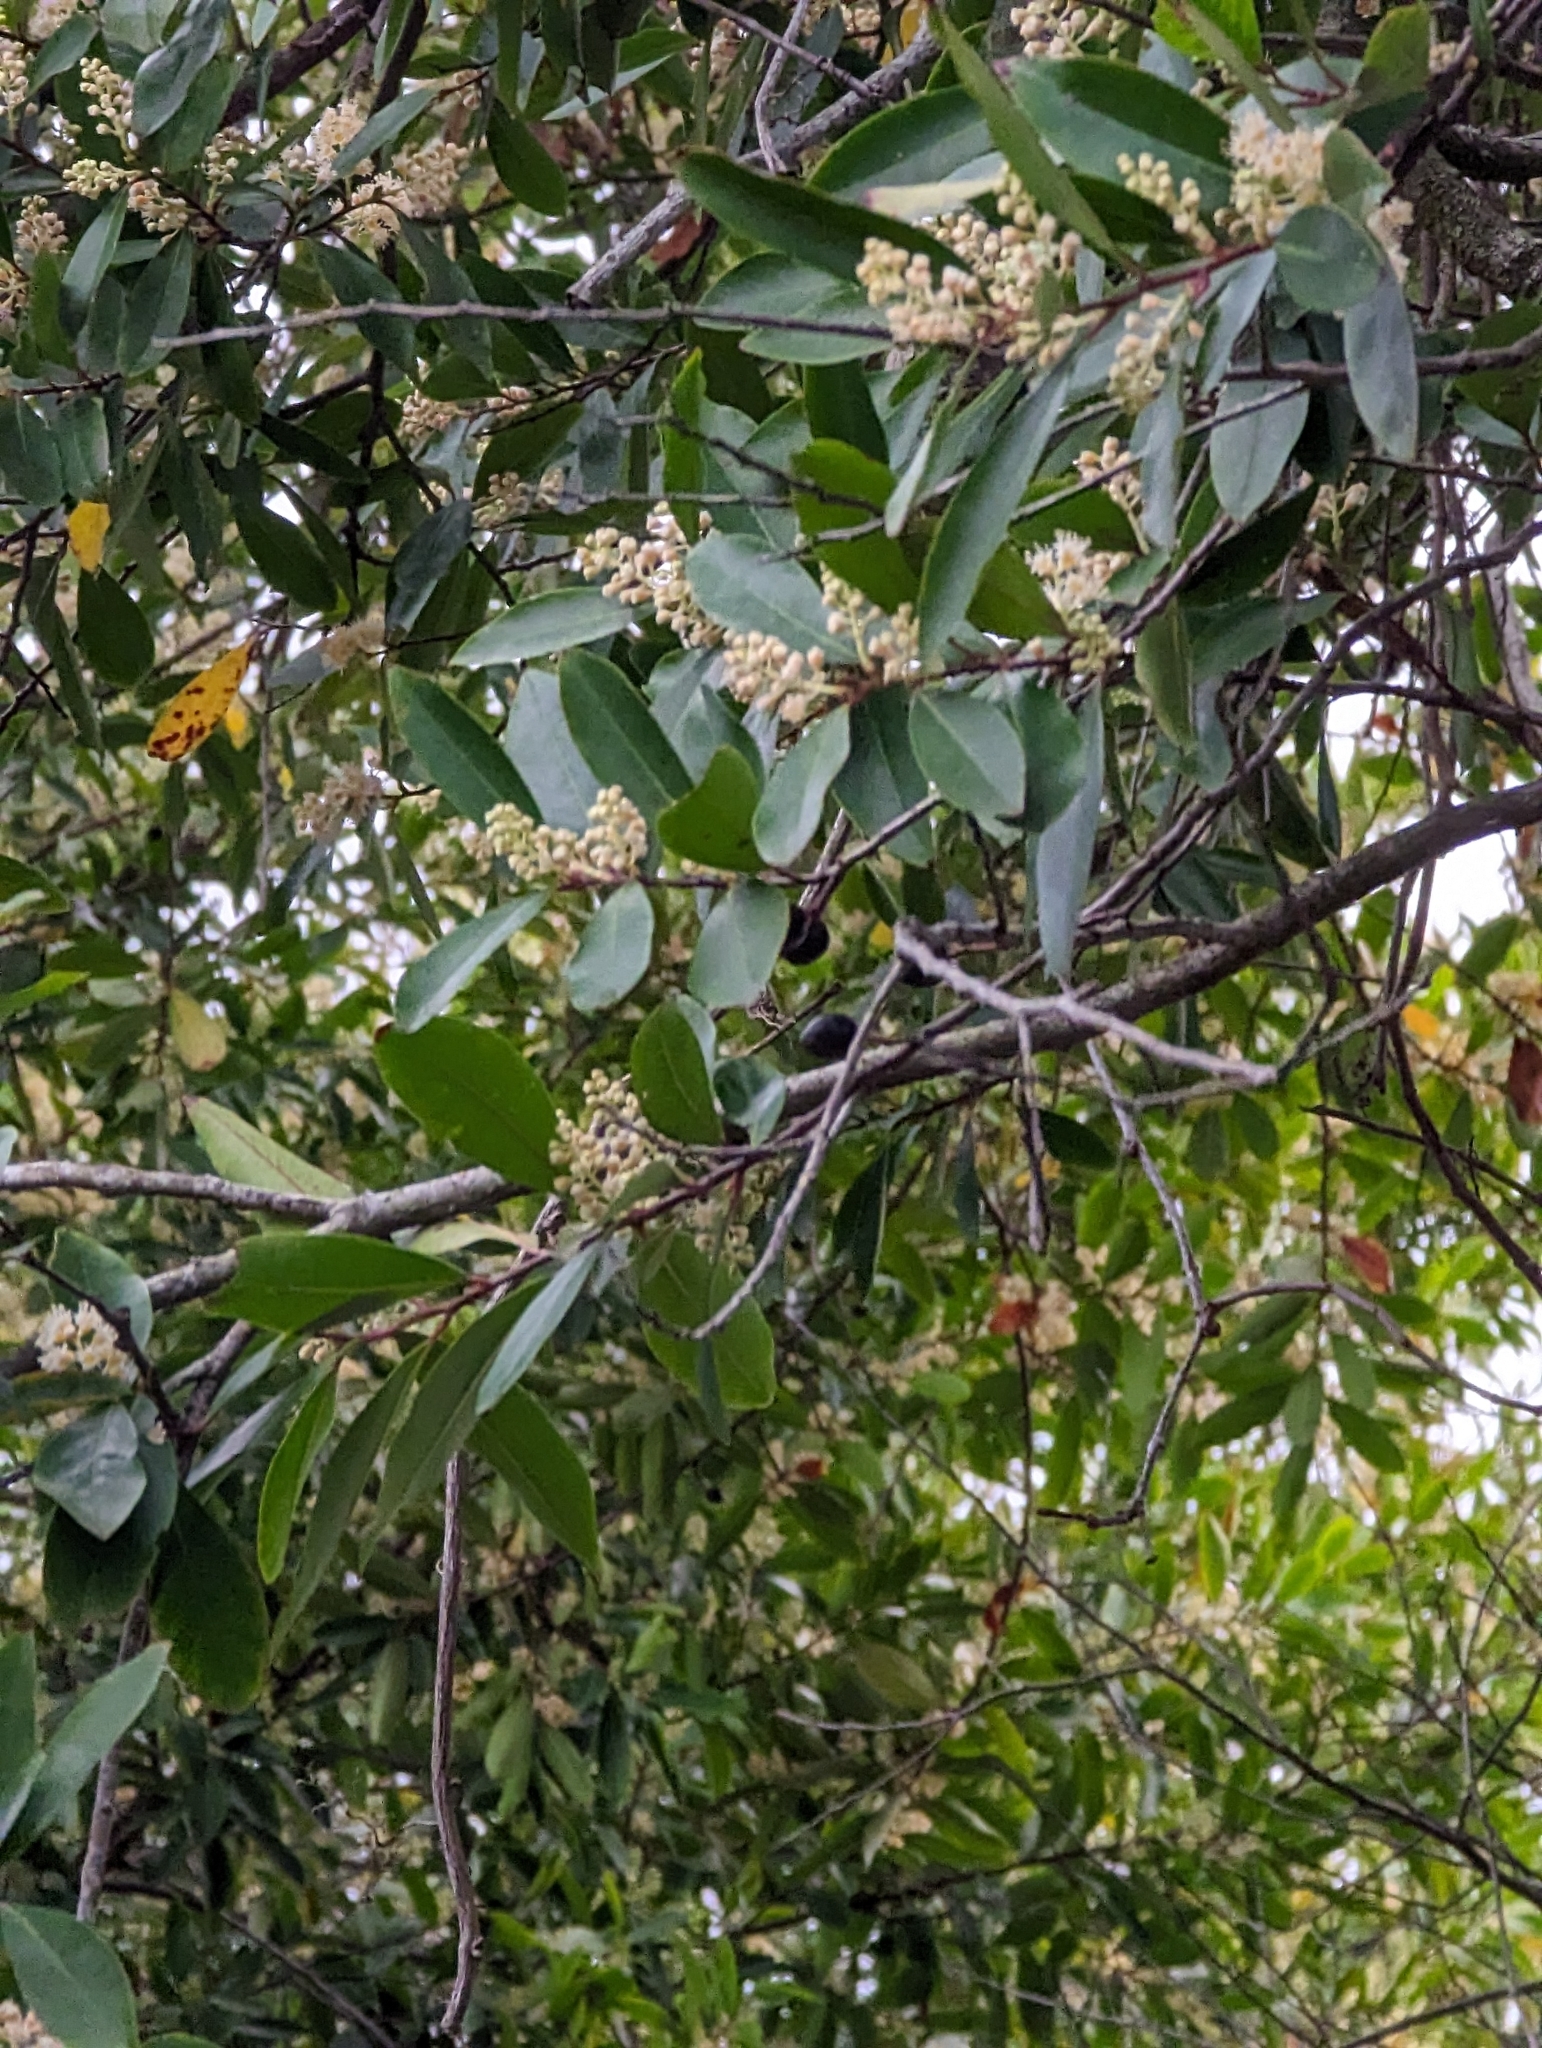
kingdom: Plantae
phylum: Tracheophyta
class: Magnoliopsida
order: Rosales
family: Rosaceae
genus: Prunus
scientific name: Prunus caroliniana
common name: Carolina laurel cherry
